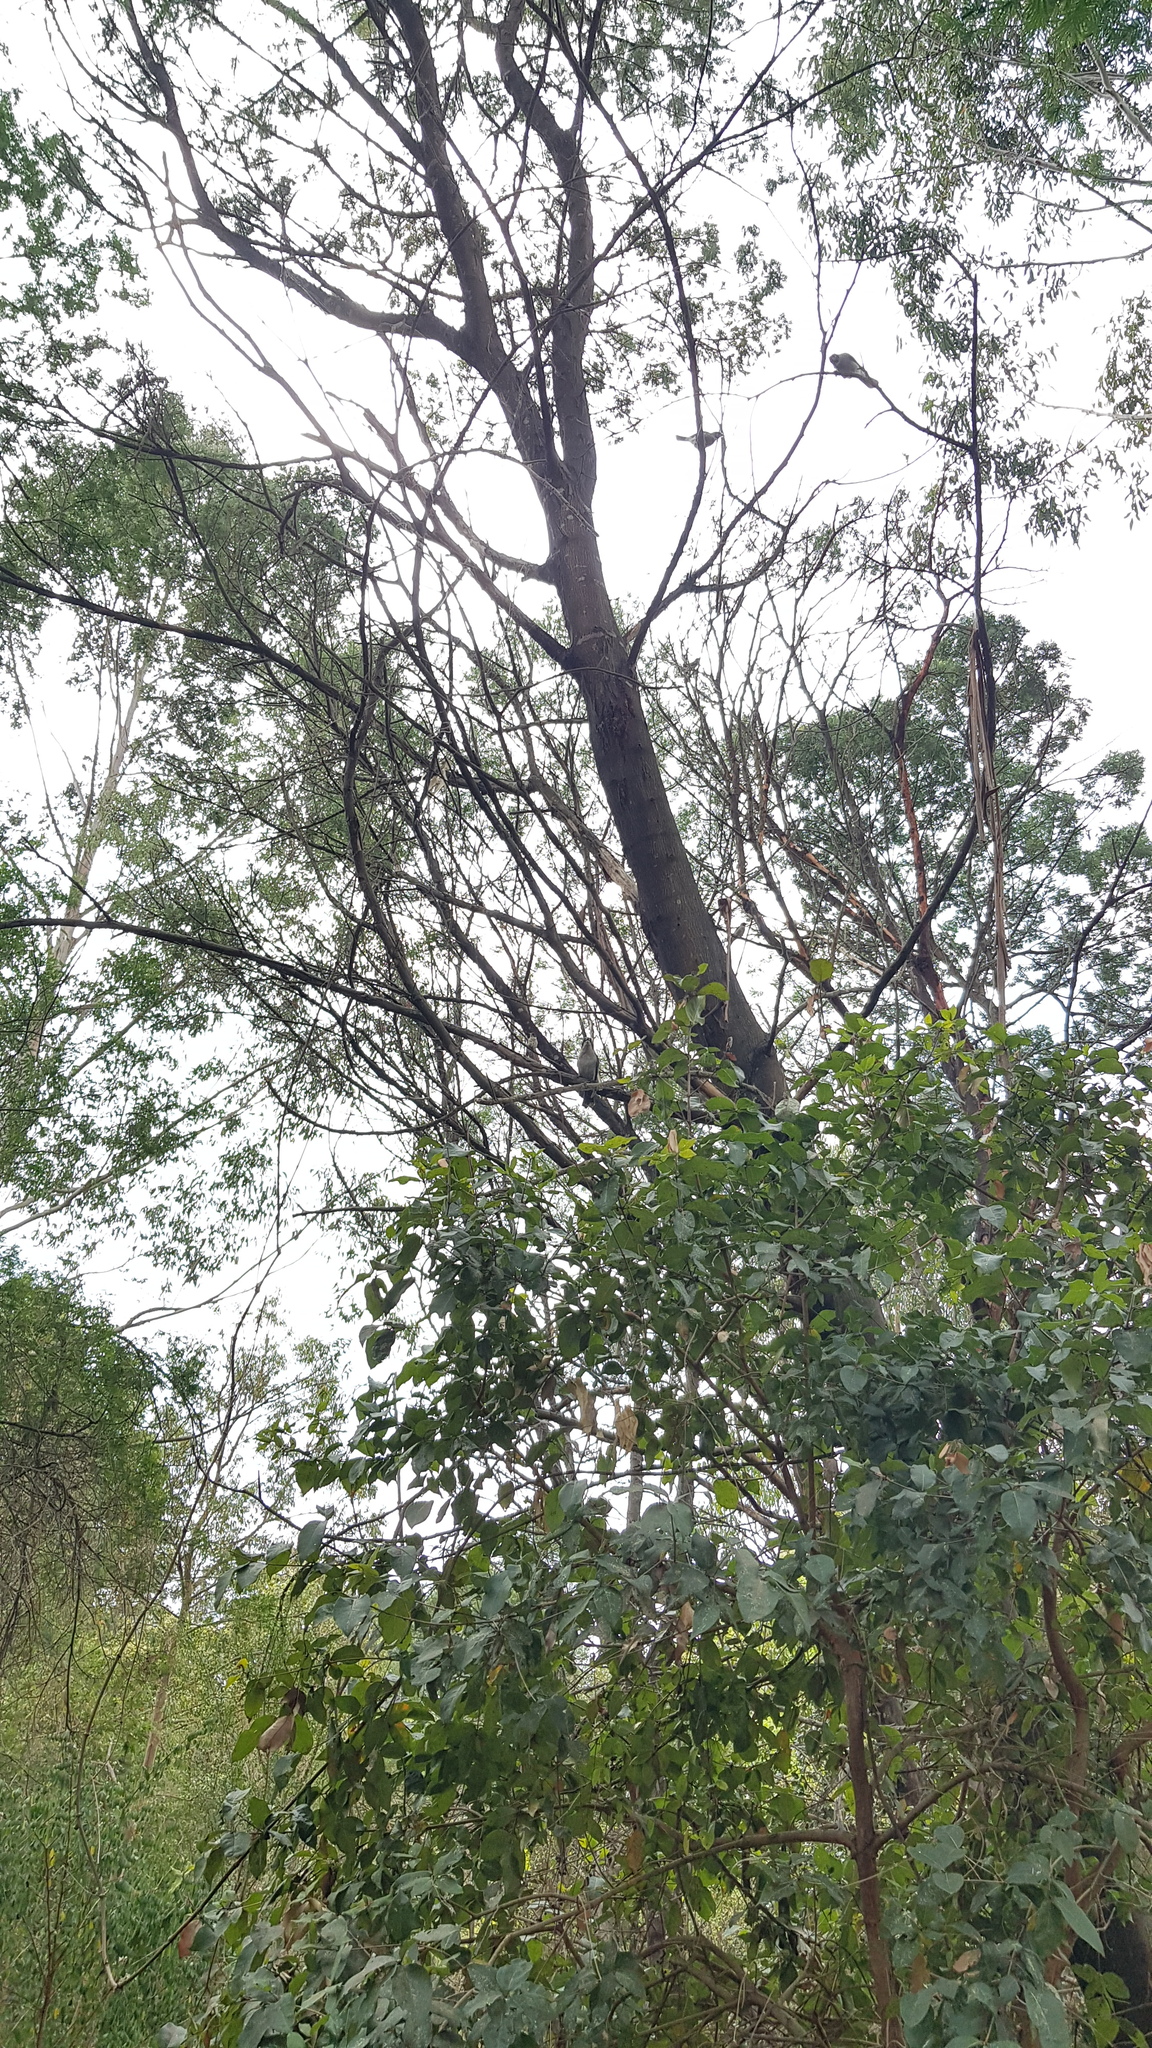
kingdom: Animalia
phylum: Chordata
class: Aves
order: Passeriformes
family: Cracticidae
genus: Cracticus
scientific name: Cracticus torquatus
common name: Grey butcherbird
